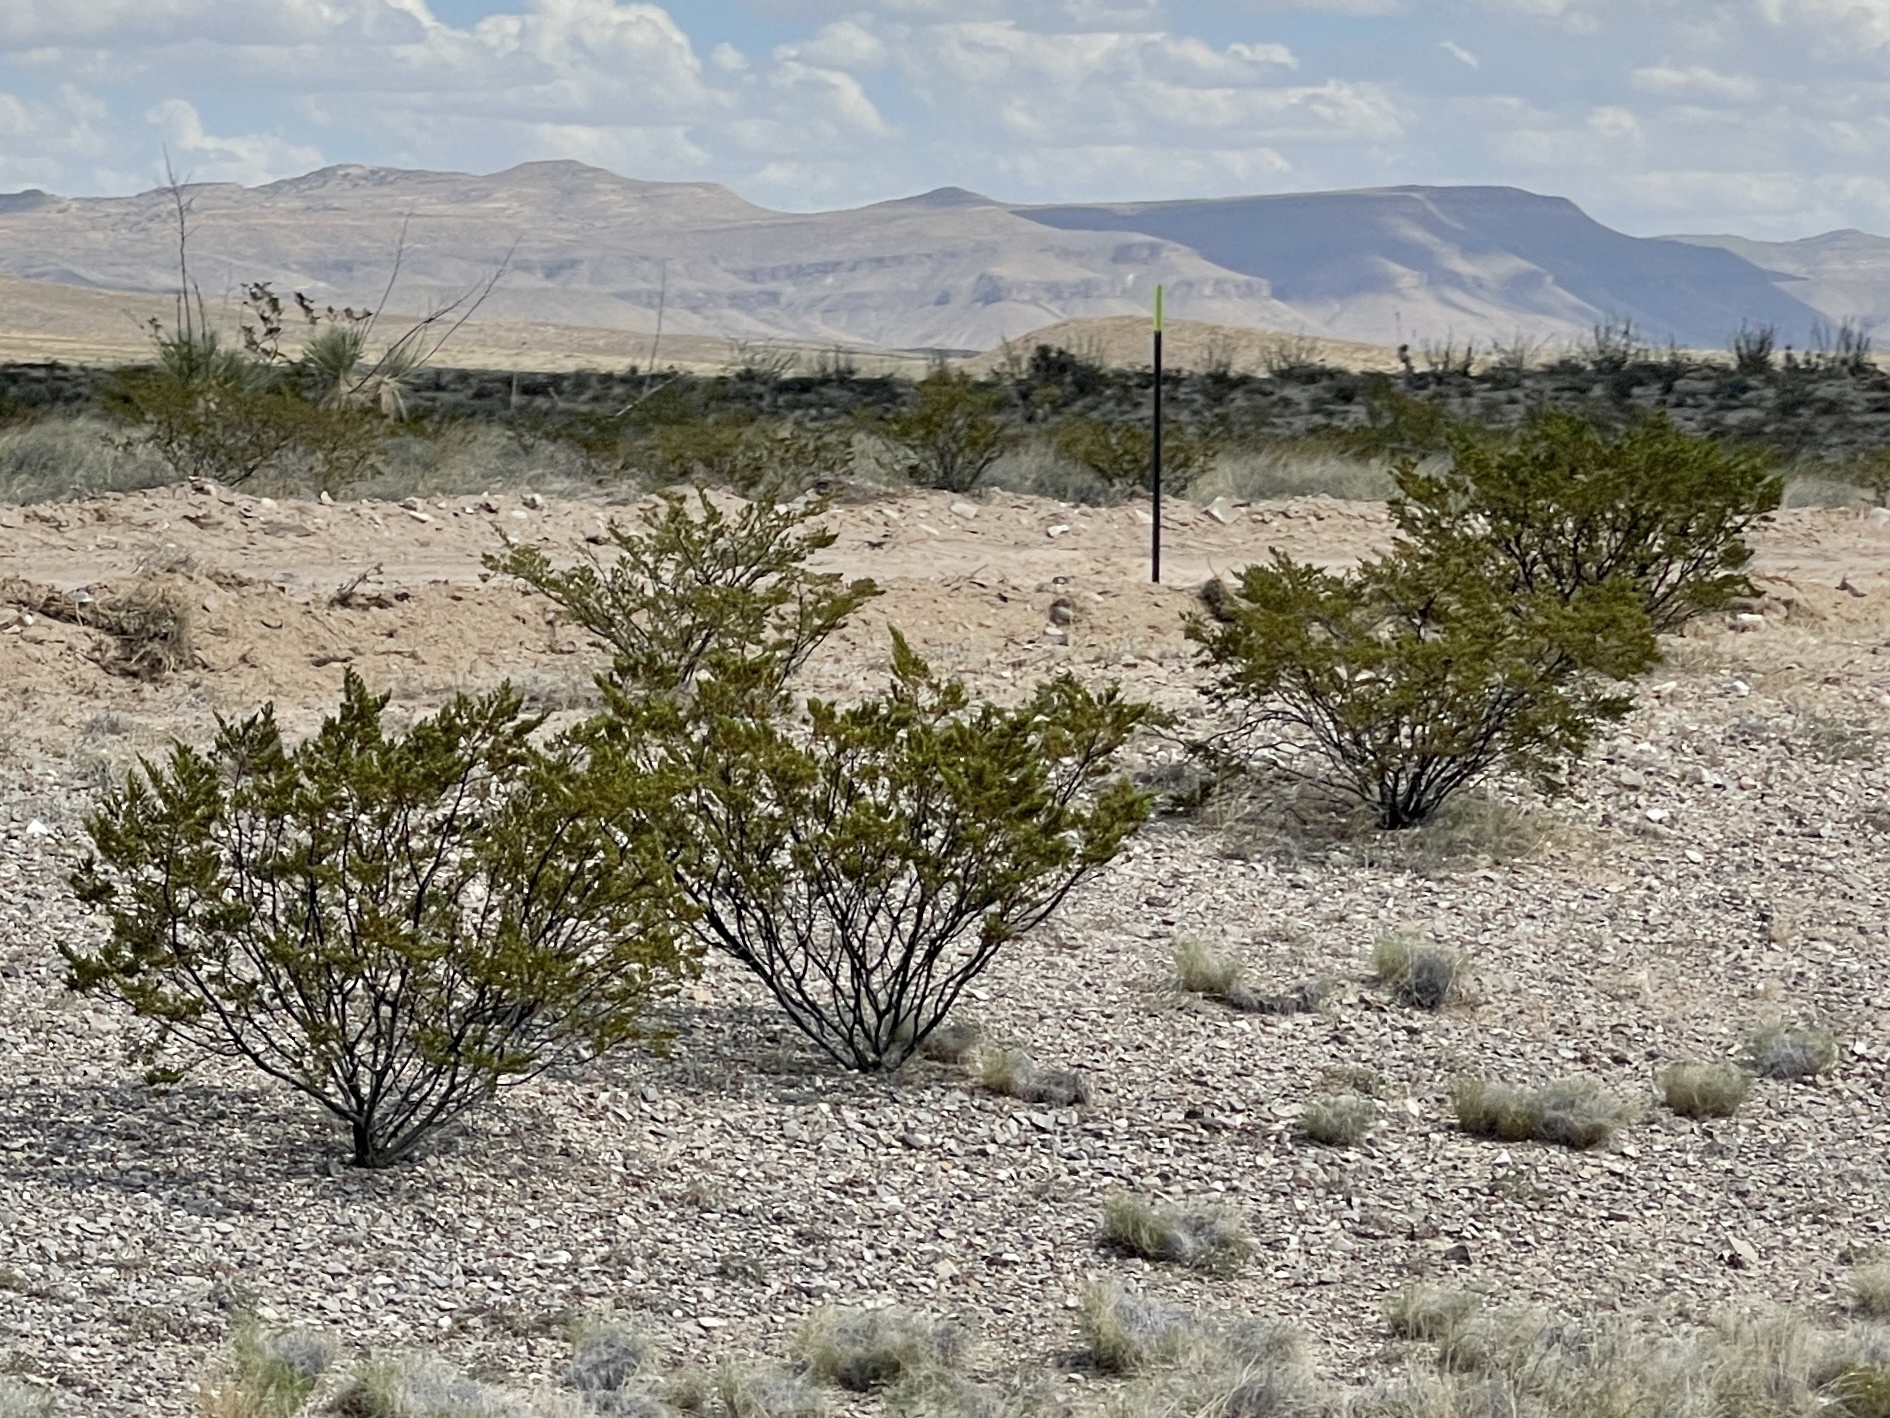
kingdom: Plantae
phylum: Tracheophyta
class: Magnoliopsida
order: Zygophyllales
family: Zygophyllaceae
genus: Larrea
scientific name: Larrea tridentata
